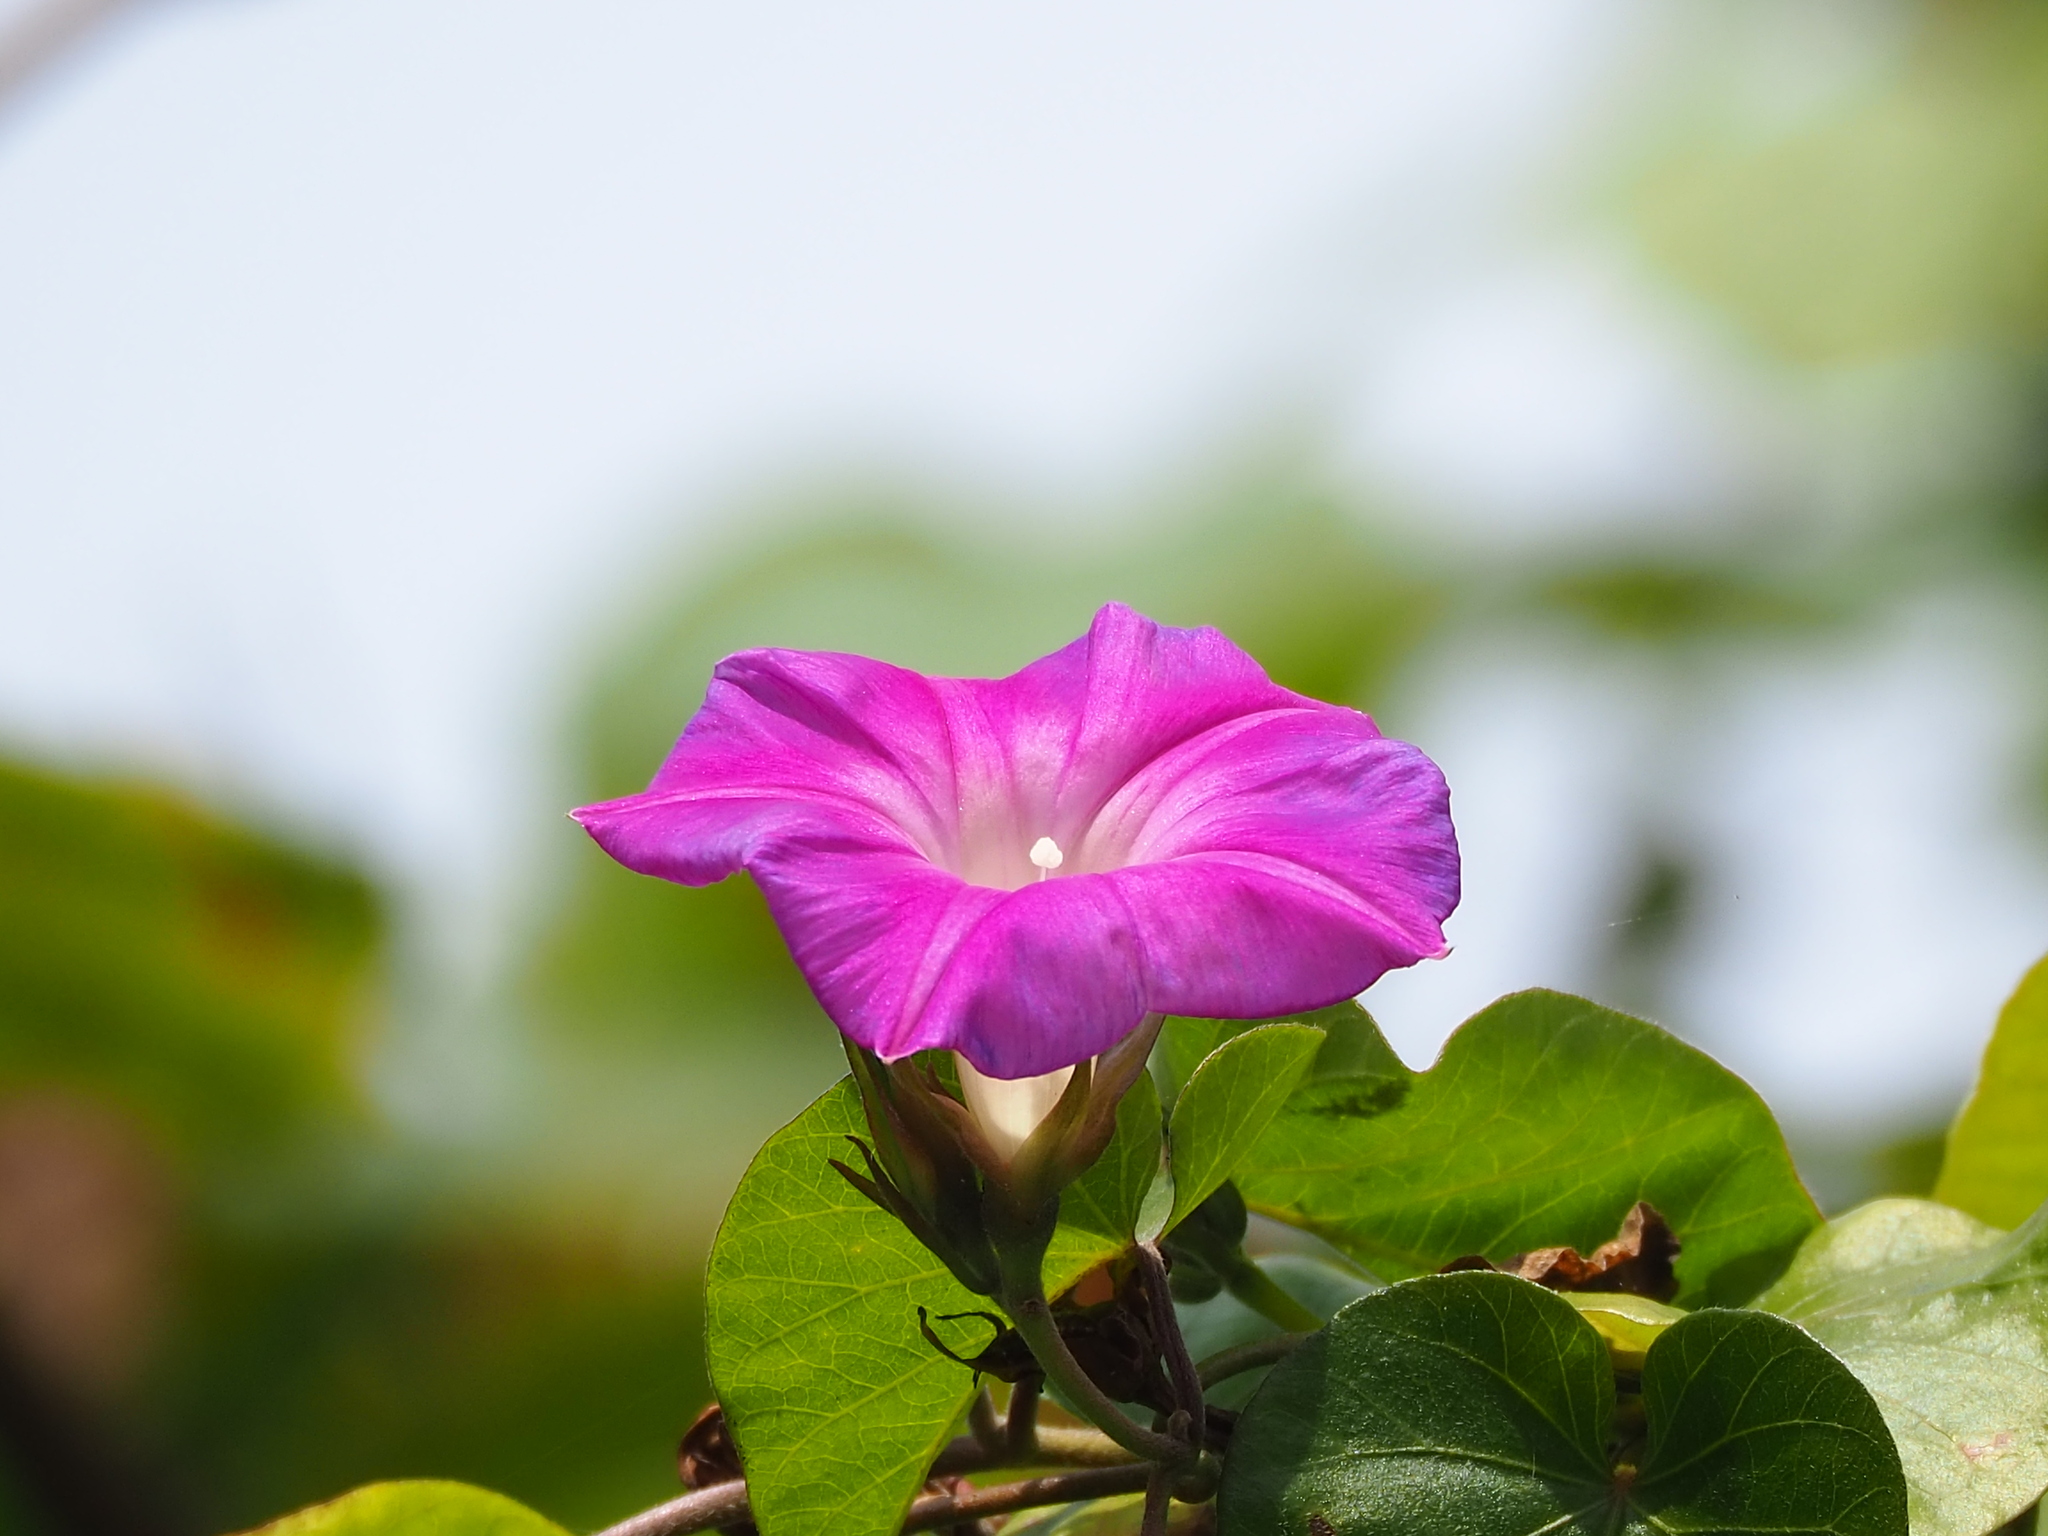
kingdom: Plantae
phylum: Tracheophyta
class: Magnoliopsida
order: Solanales
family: Convolvulaceae
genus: Ipomoea
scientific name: Ipomoea indica
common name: Blue dawnflower
